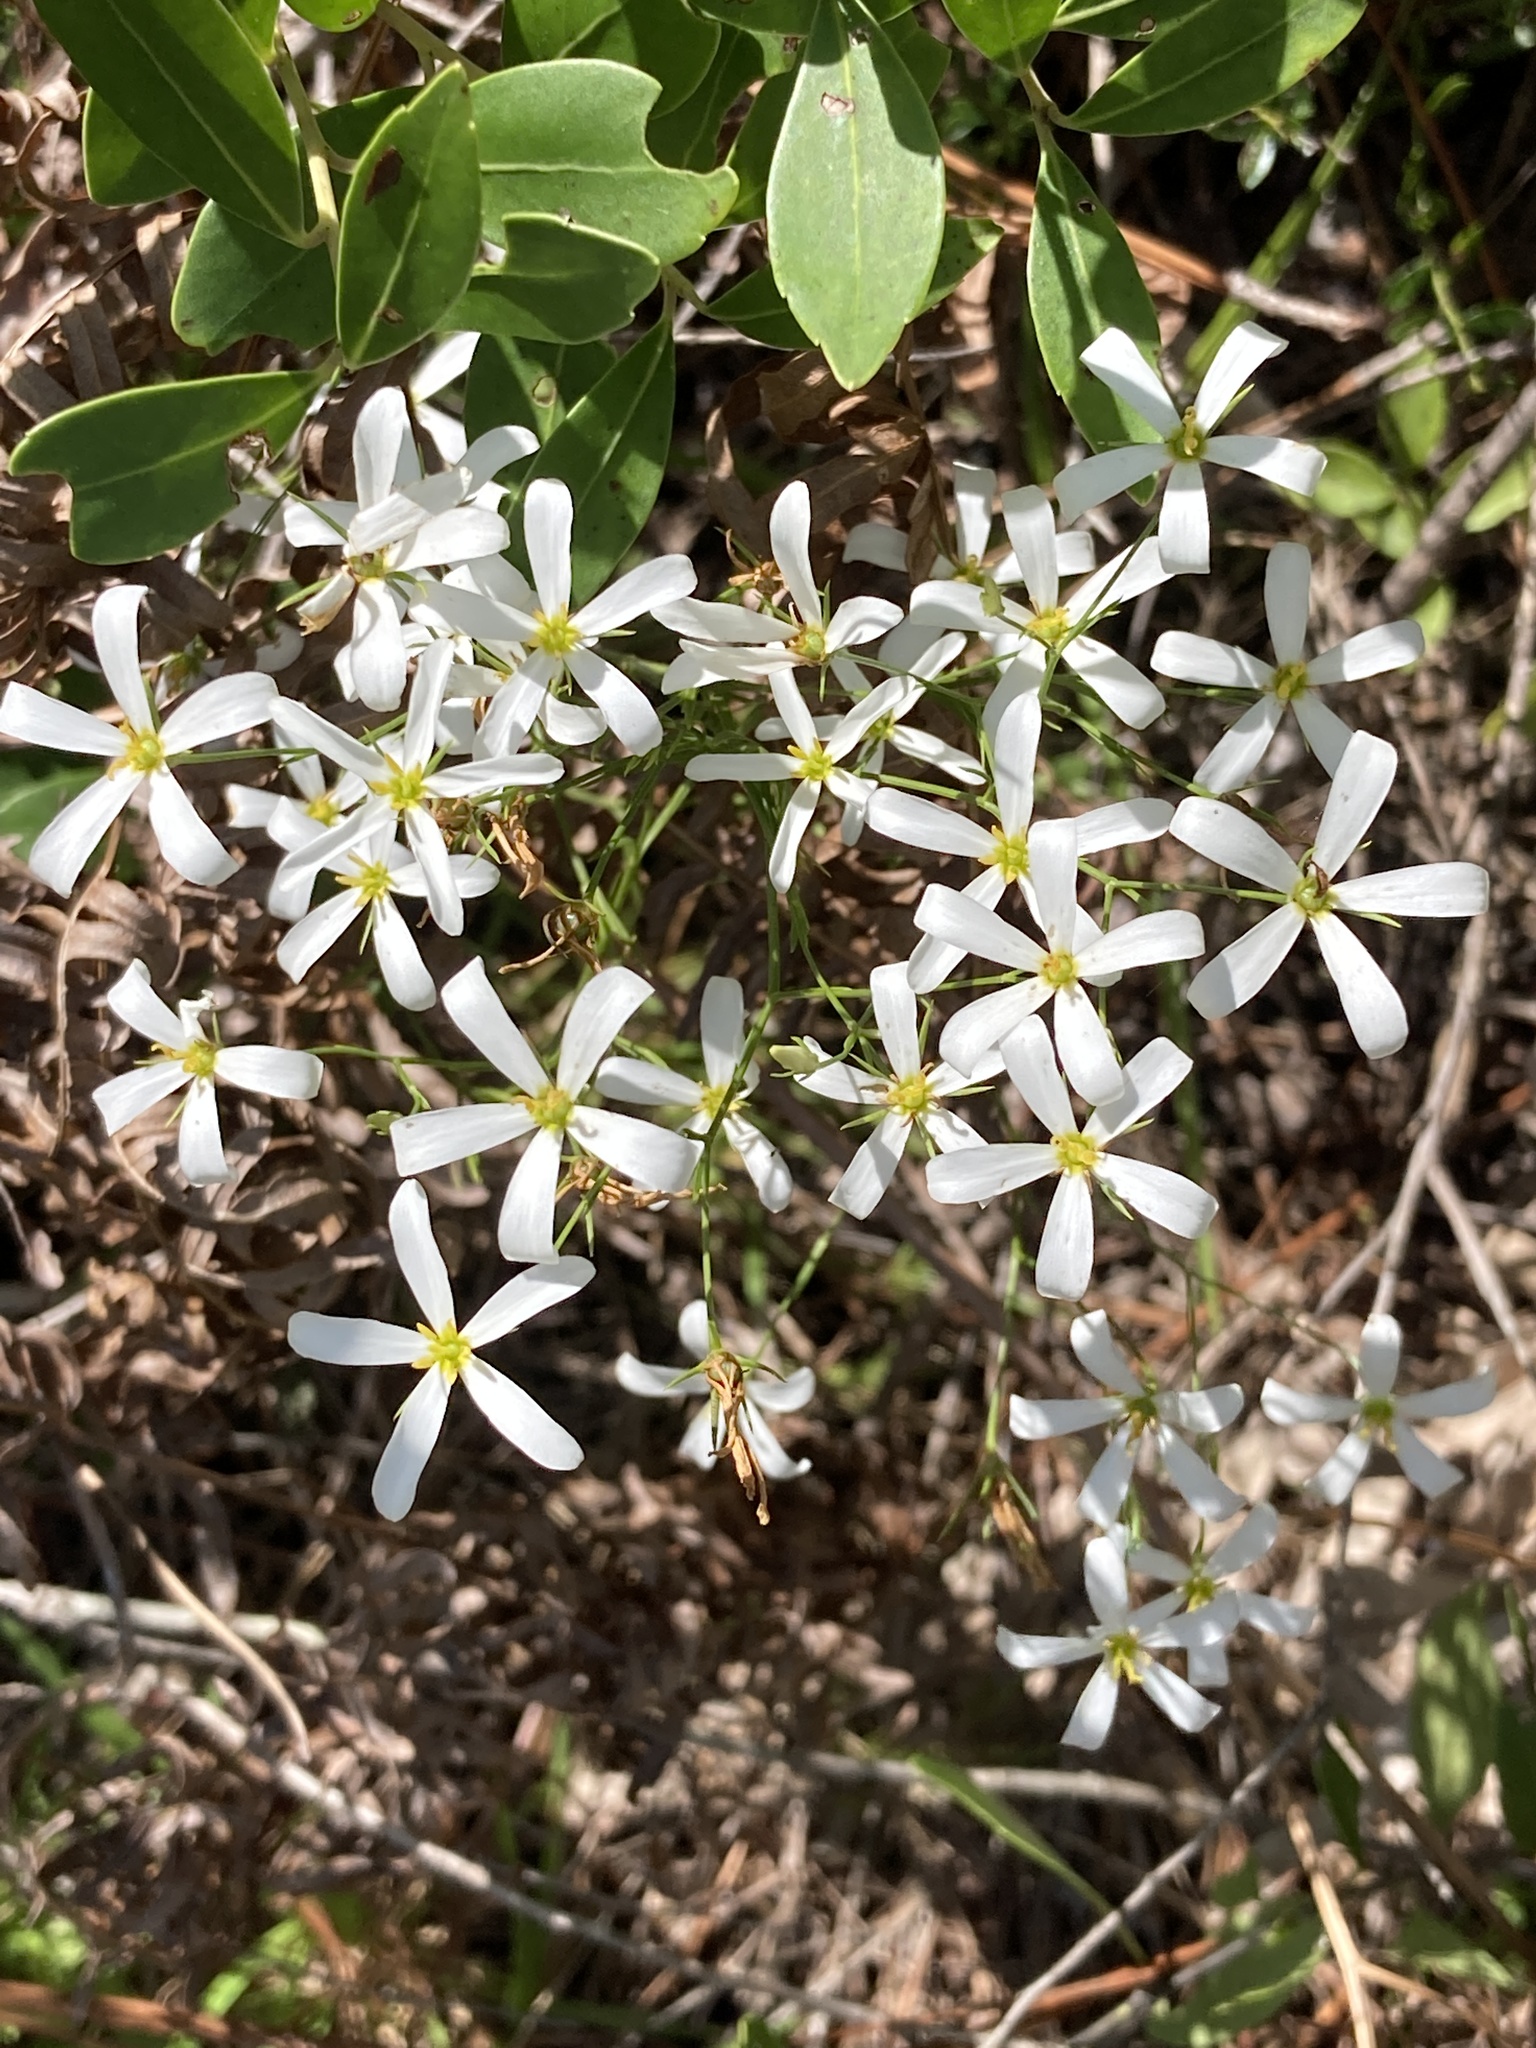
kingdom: Plantae
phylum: Tracheophyta
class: Magnoliopsida
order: Gentianales
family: Gentianaceae
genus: Sabatia
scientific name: Sabatia brevifolia
